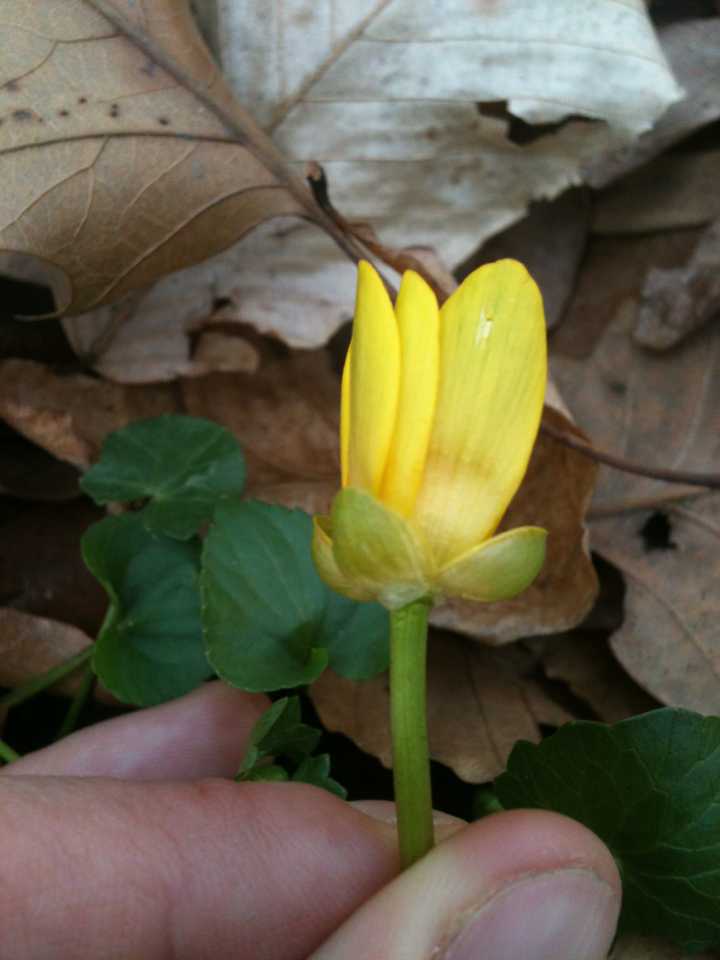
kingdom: Plantae
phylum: Tracheophyta
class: Magnoliopsida
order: Ranunculales
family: Ranunculaceae
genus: Ficaria
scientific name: Ficaria verna
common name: Lesser celandine
